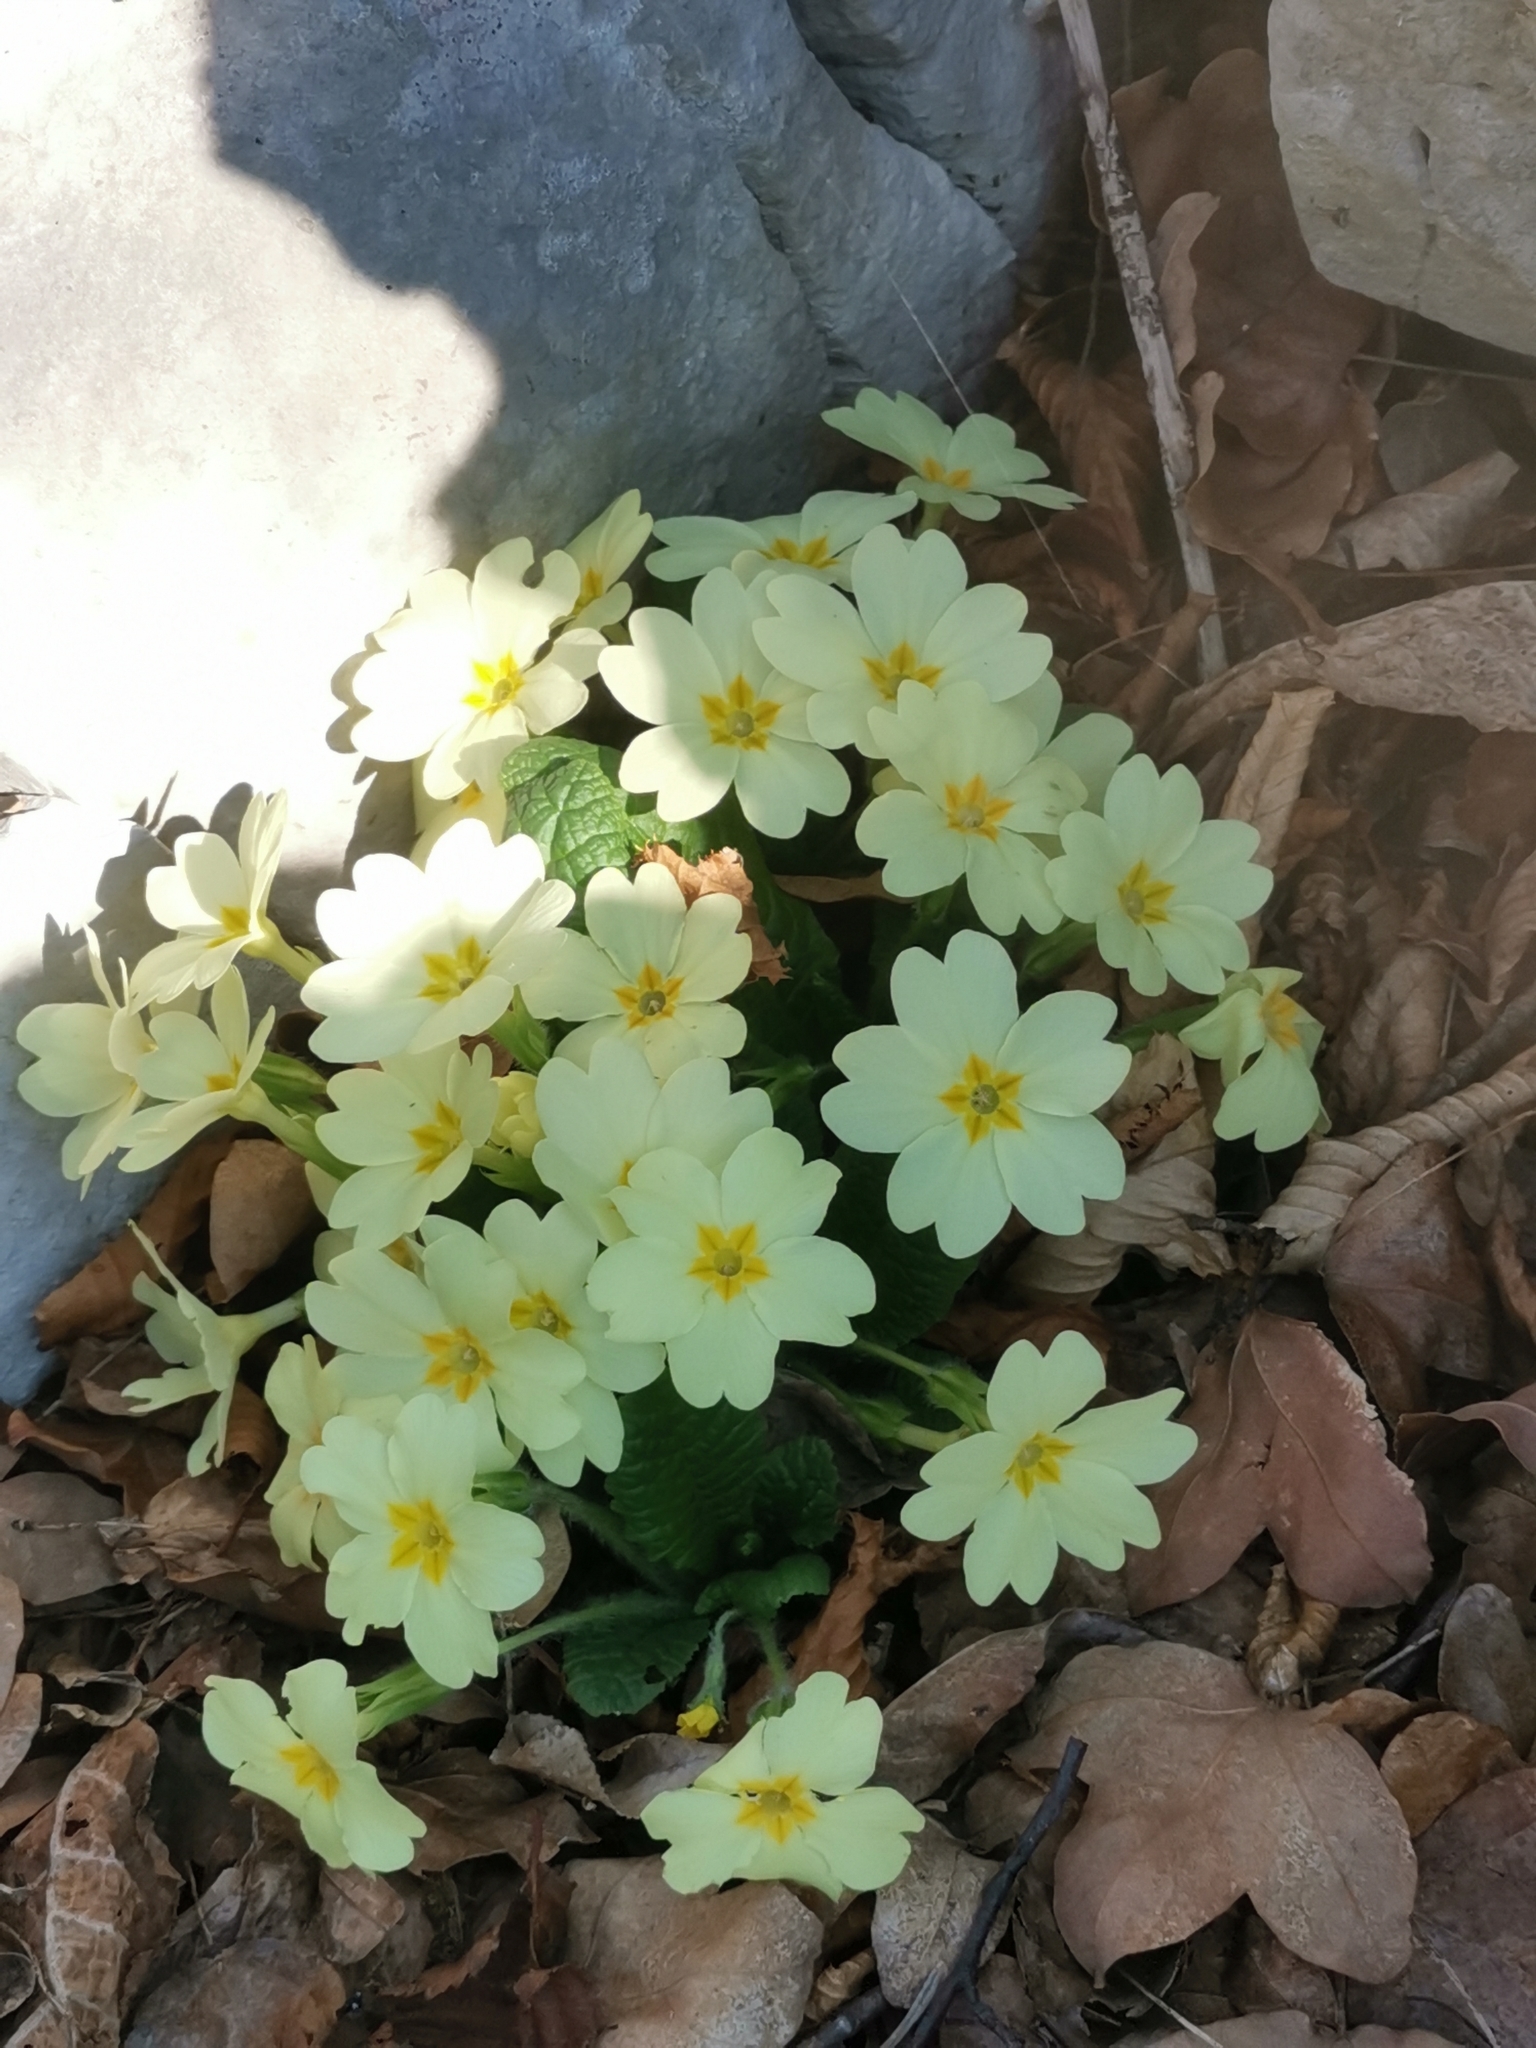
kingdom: Plantae
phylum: Tracheophyta
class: Magnoliopsida
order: Ericales
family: Primulaceae
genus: Primula
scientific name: Primula vulgaris
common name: Primrose
